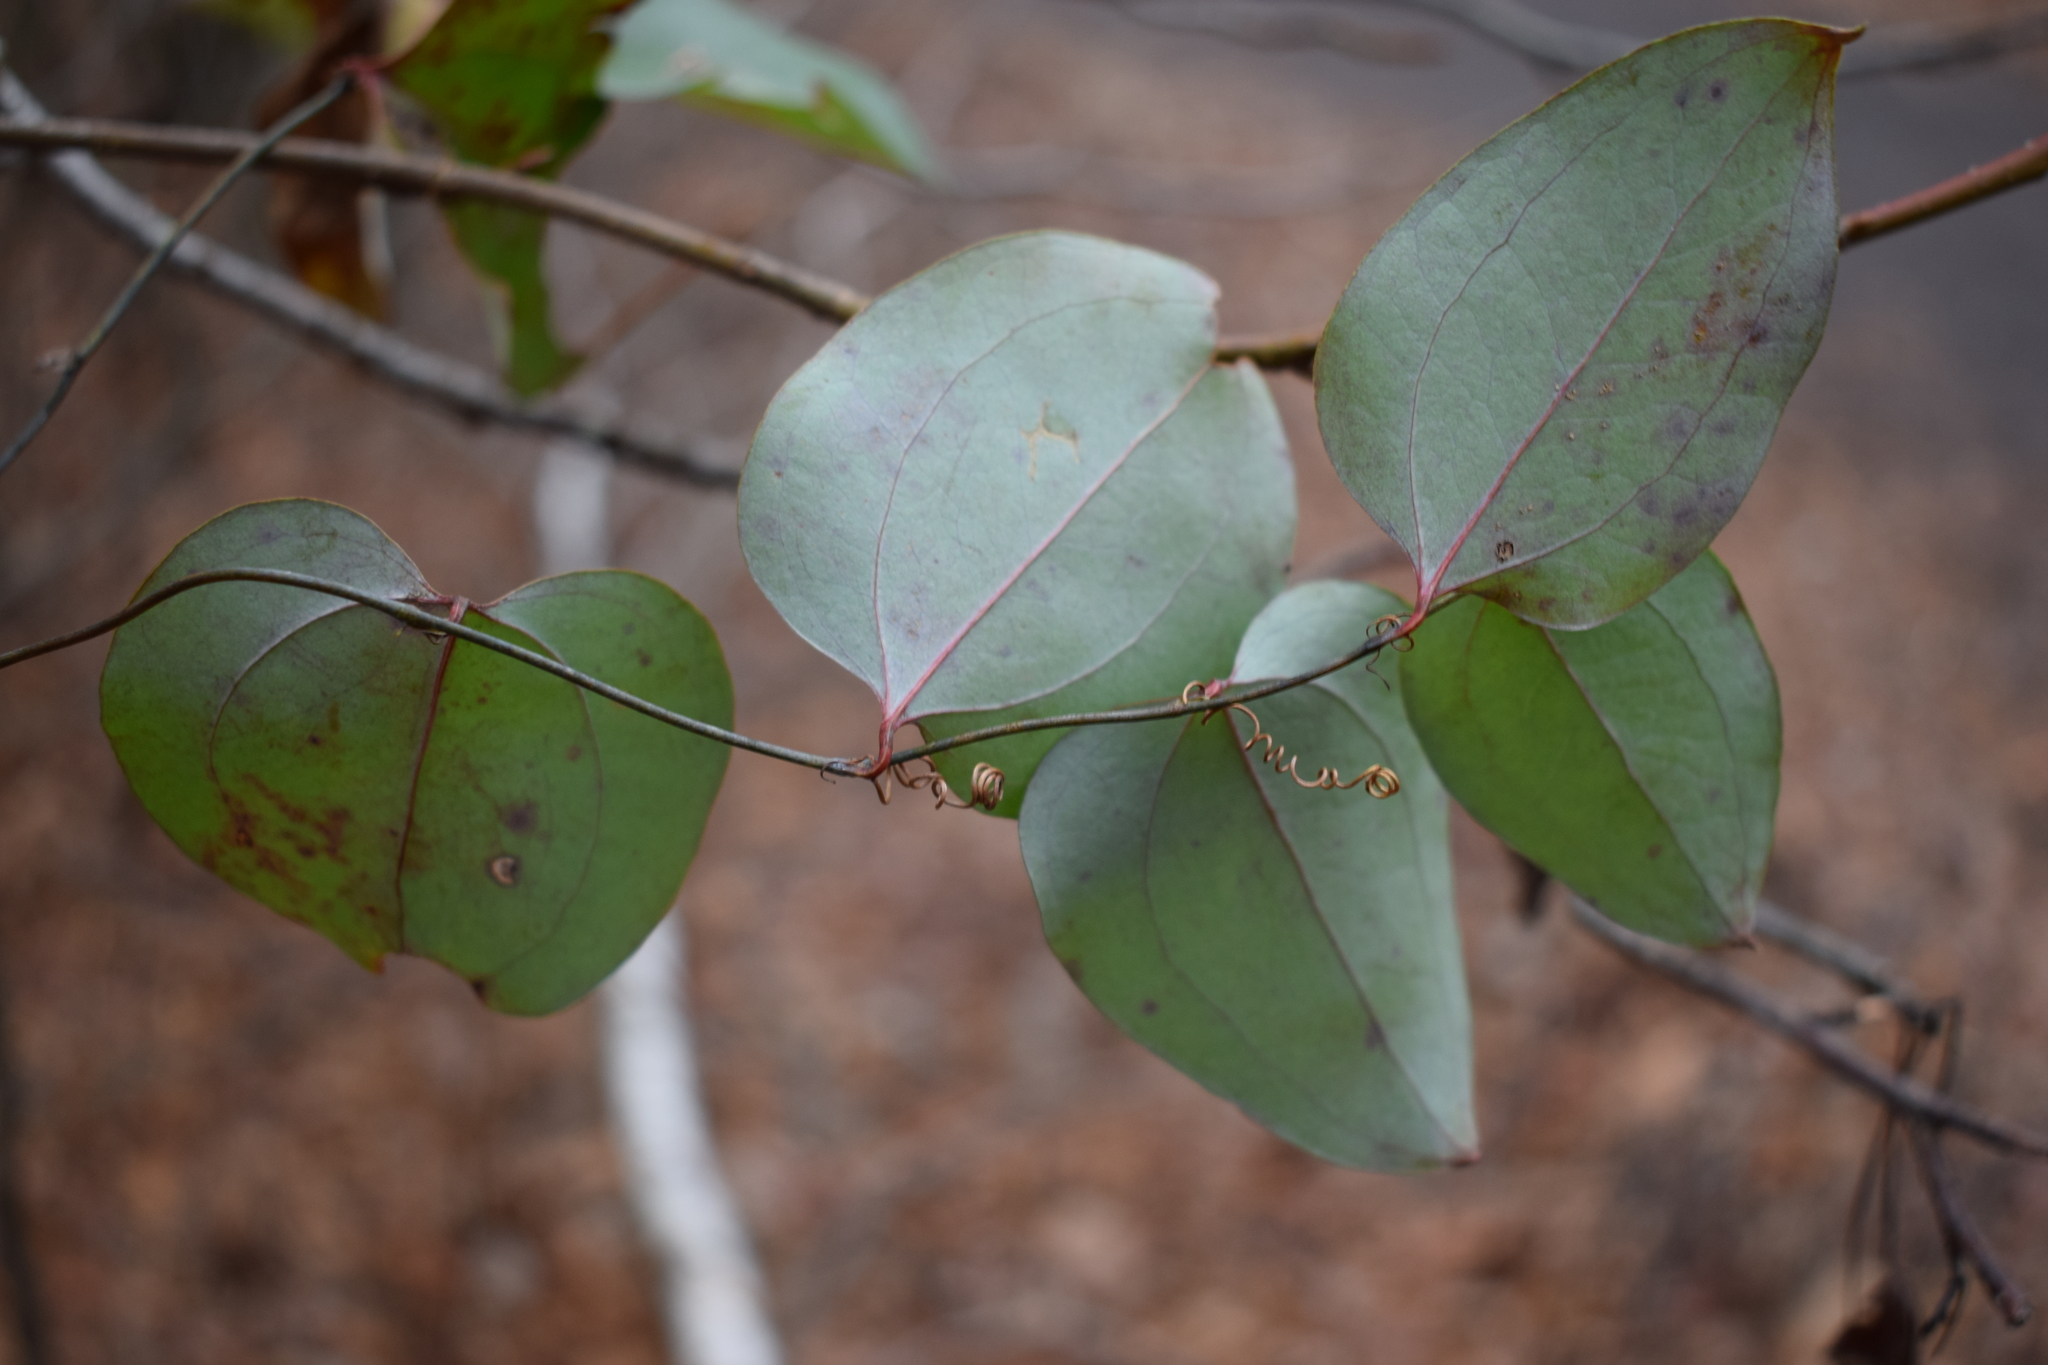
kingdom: Plantae
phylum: Tracheophyta
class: Liliopsida
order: Liliales
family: Smilacaceae
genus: Smilax
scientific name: Smilax glauca
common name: Cat greenbrier
